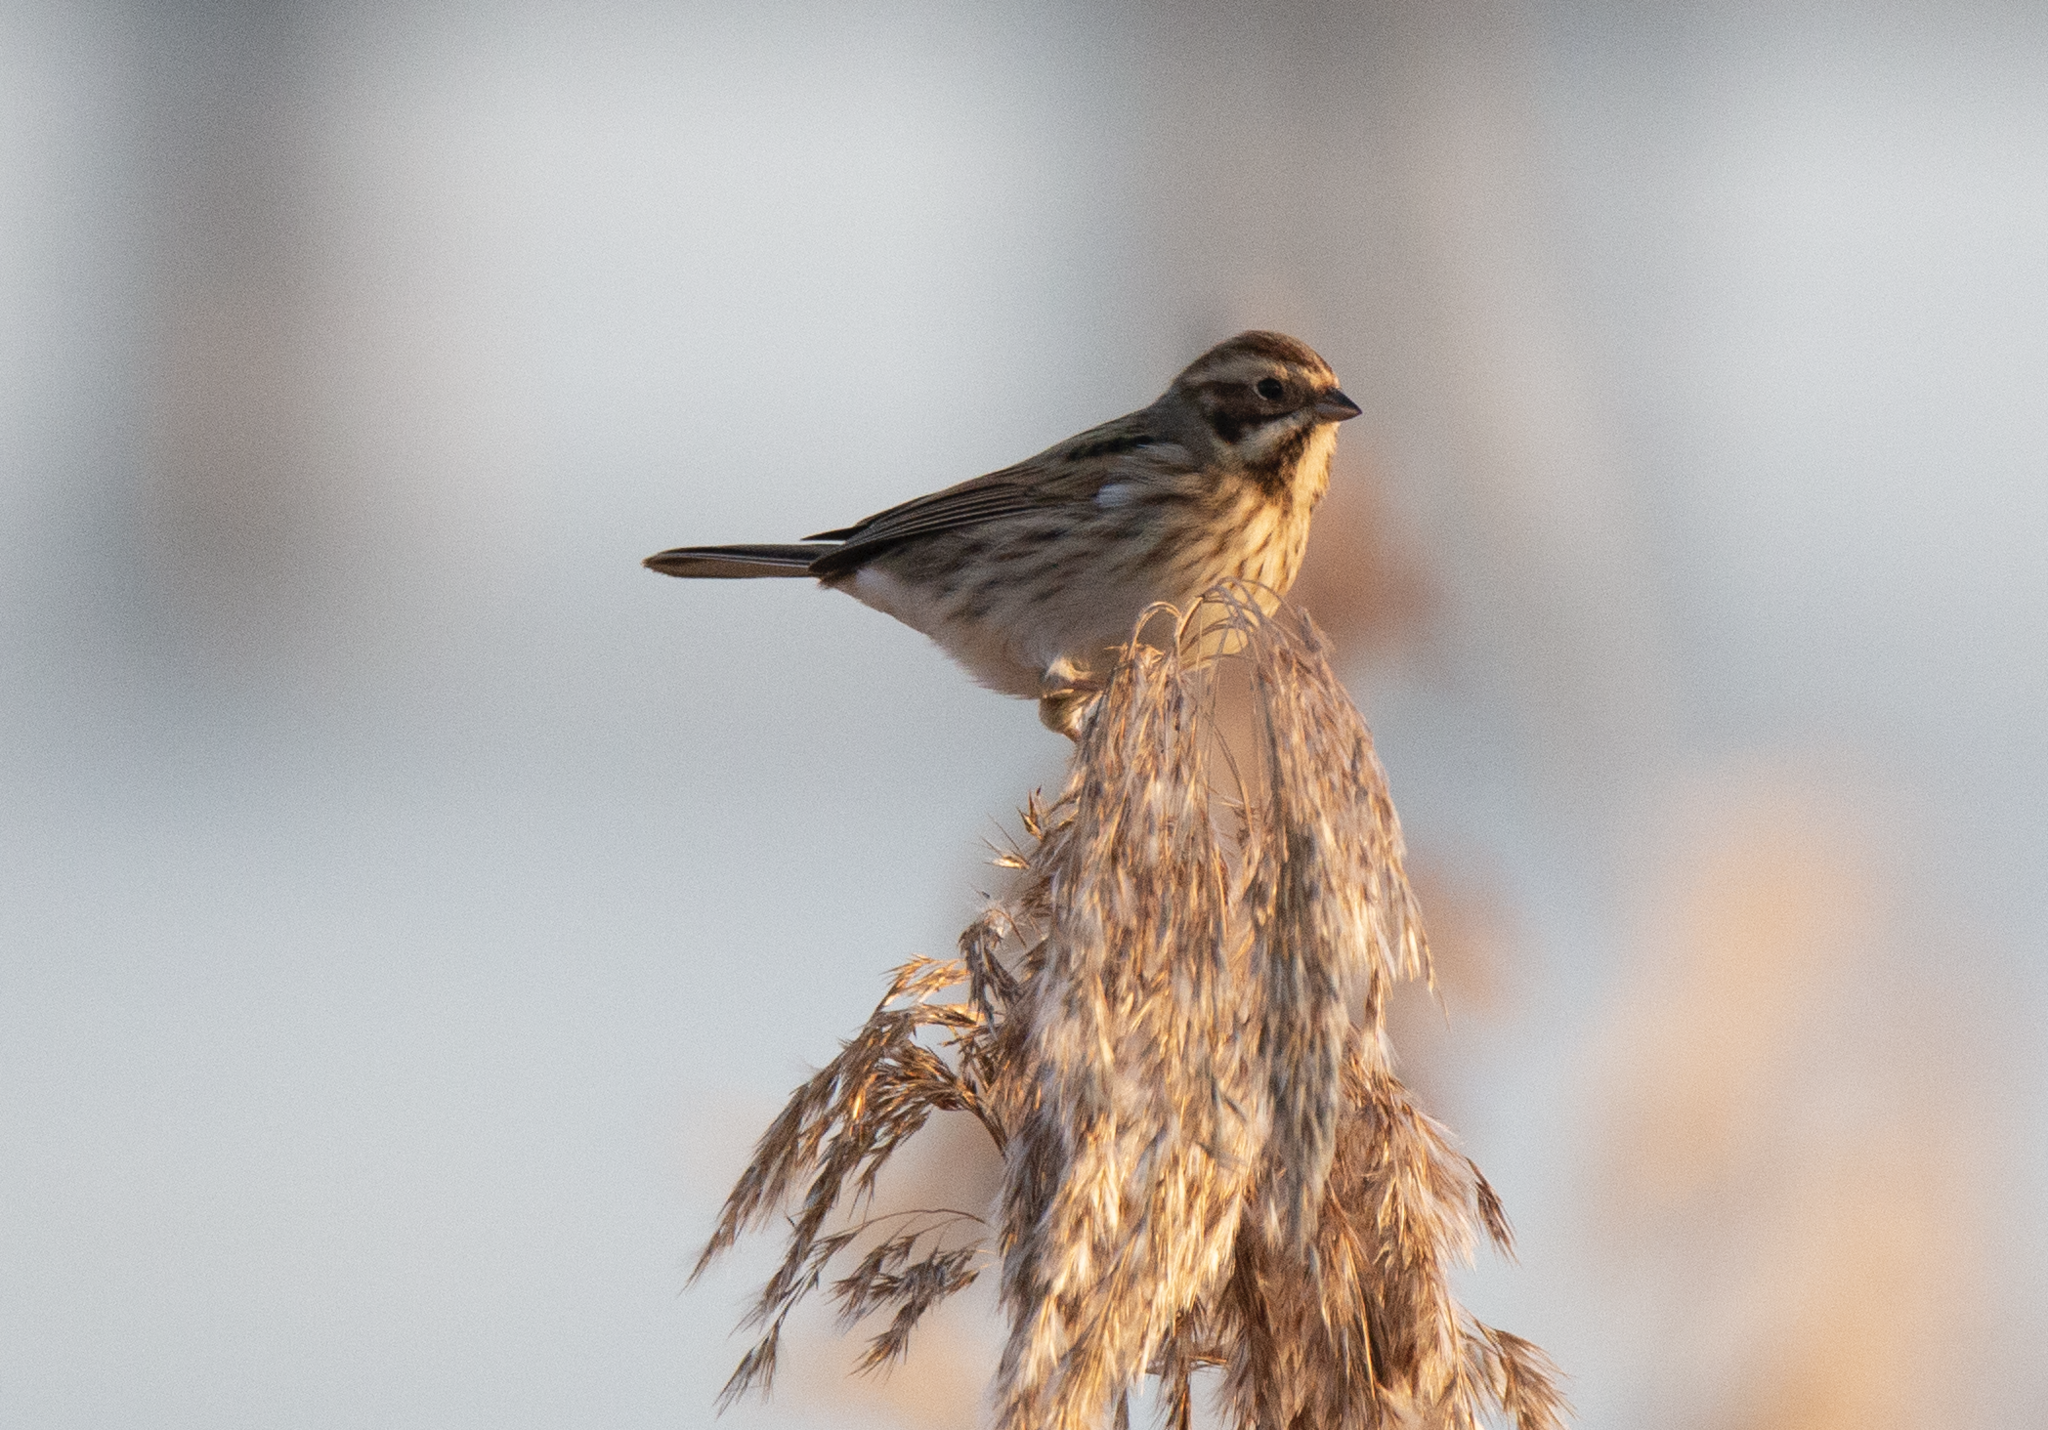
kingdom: Animalia
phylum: Chordata
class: Aves
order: Passeriformes
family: Emberizidae
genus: Emberiza
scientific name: Emberiza schoeniclus
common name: Reed bunting
